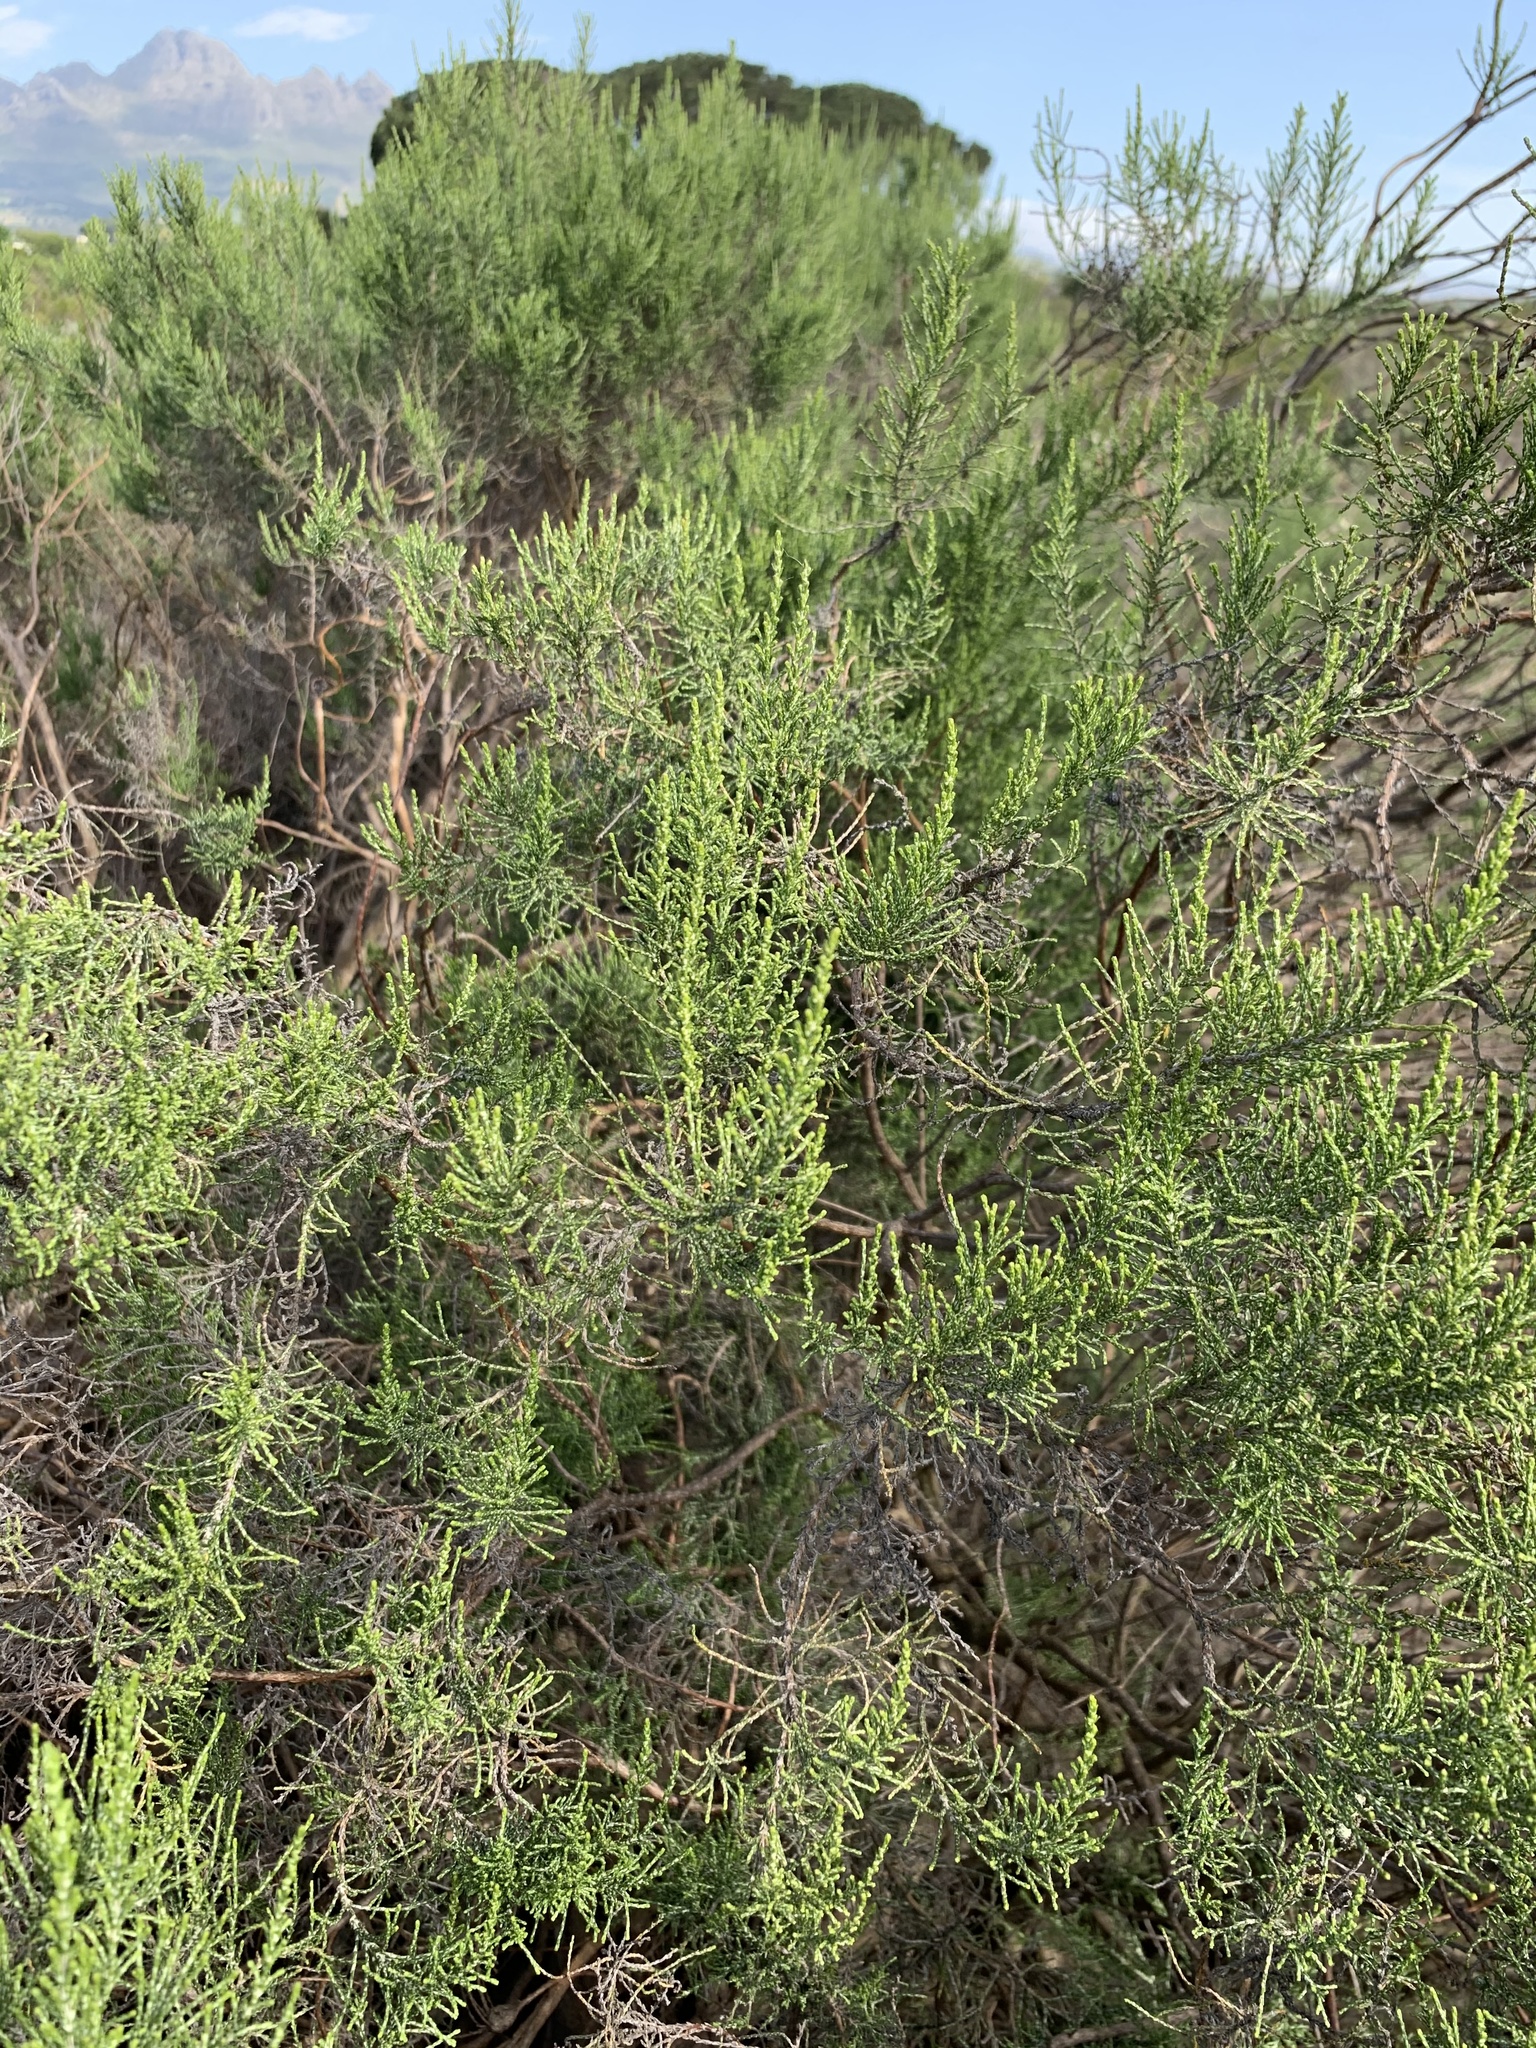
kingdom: Plantae
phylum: Tracheophyta
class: Magnoliopsida
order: Asterales
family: Asteraceae
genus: Dicerothamnus
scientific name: Dicerothamnus rhinocerotis
